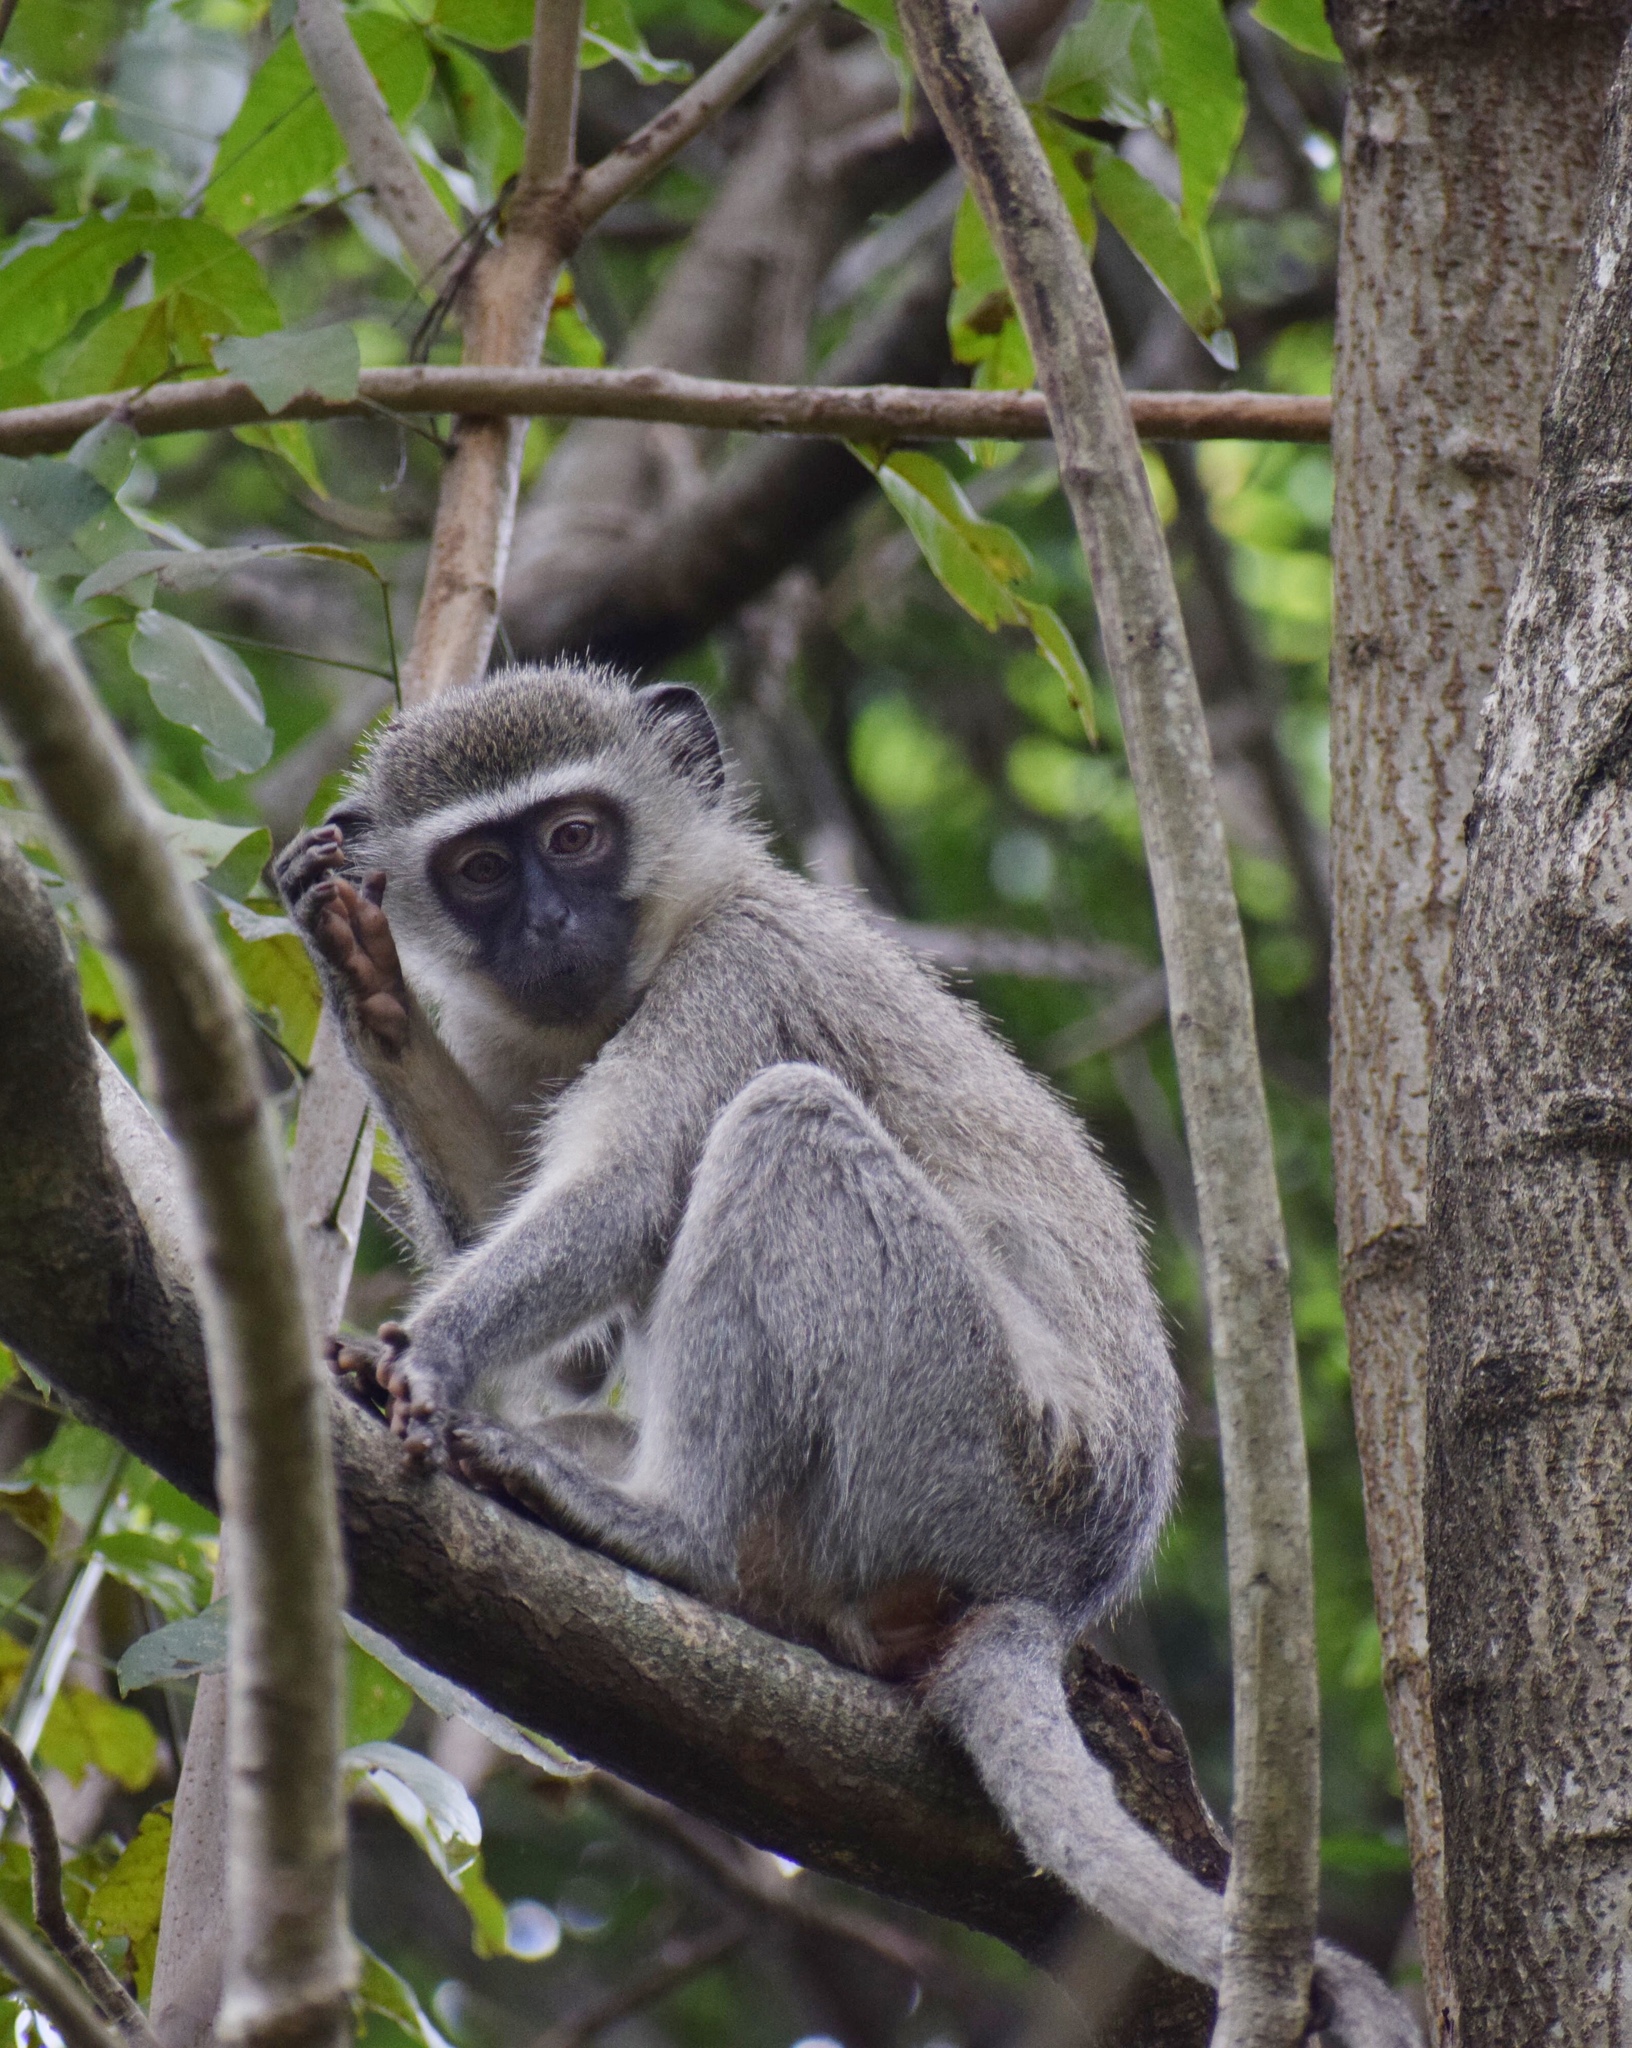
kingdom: Animalia
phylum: Chordata
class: Mammalia
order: Primates
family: Cercopithecidae
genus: Chlorocebus
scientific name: Chlorocebus pygerythrus
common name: Vervet monkey
